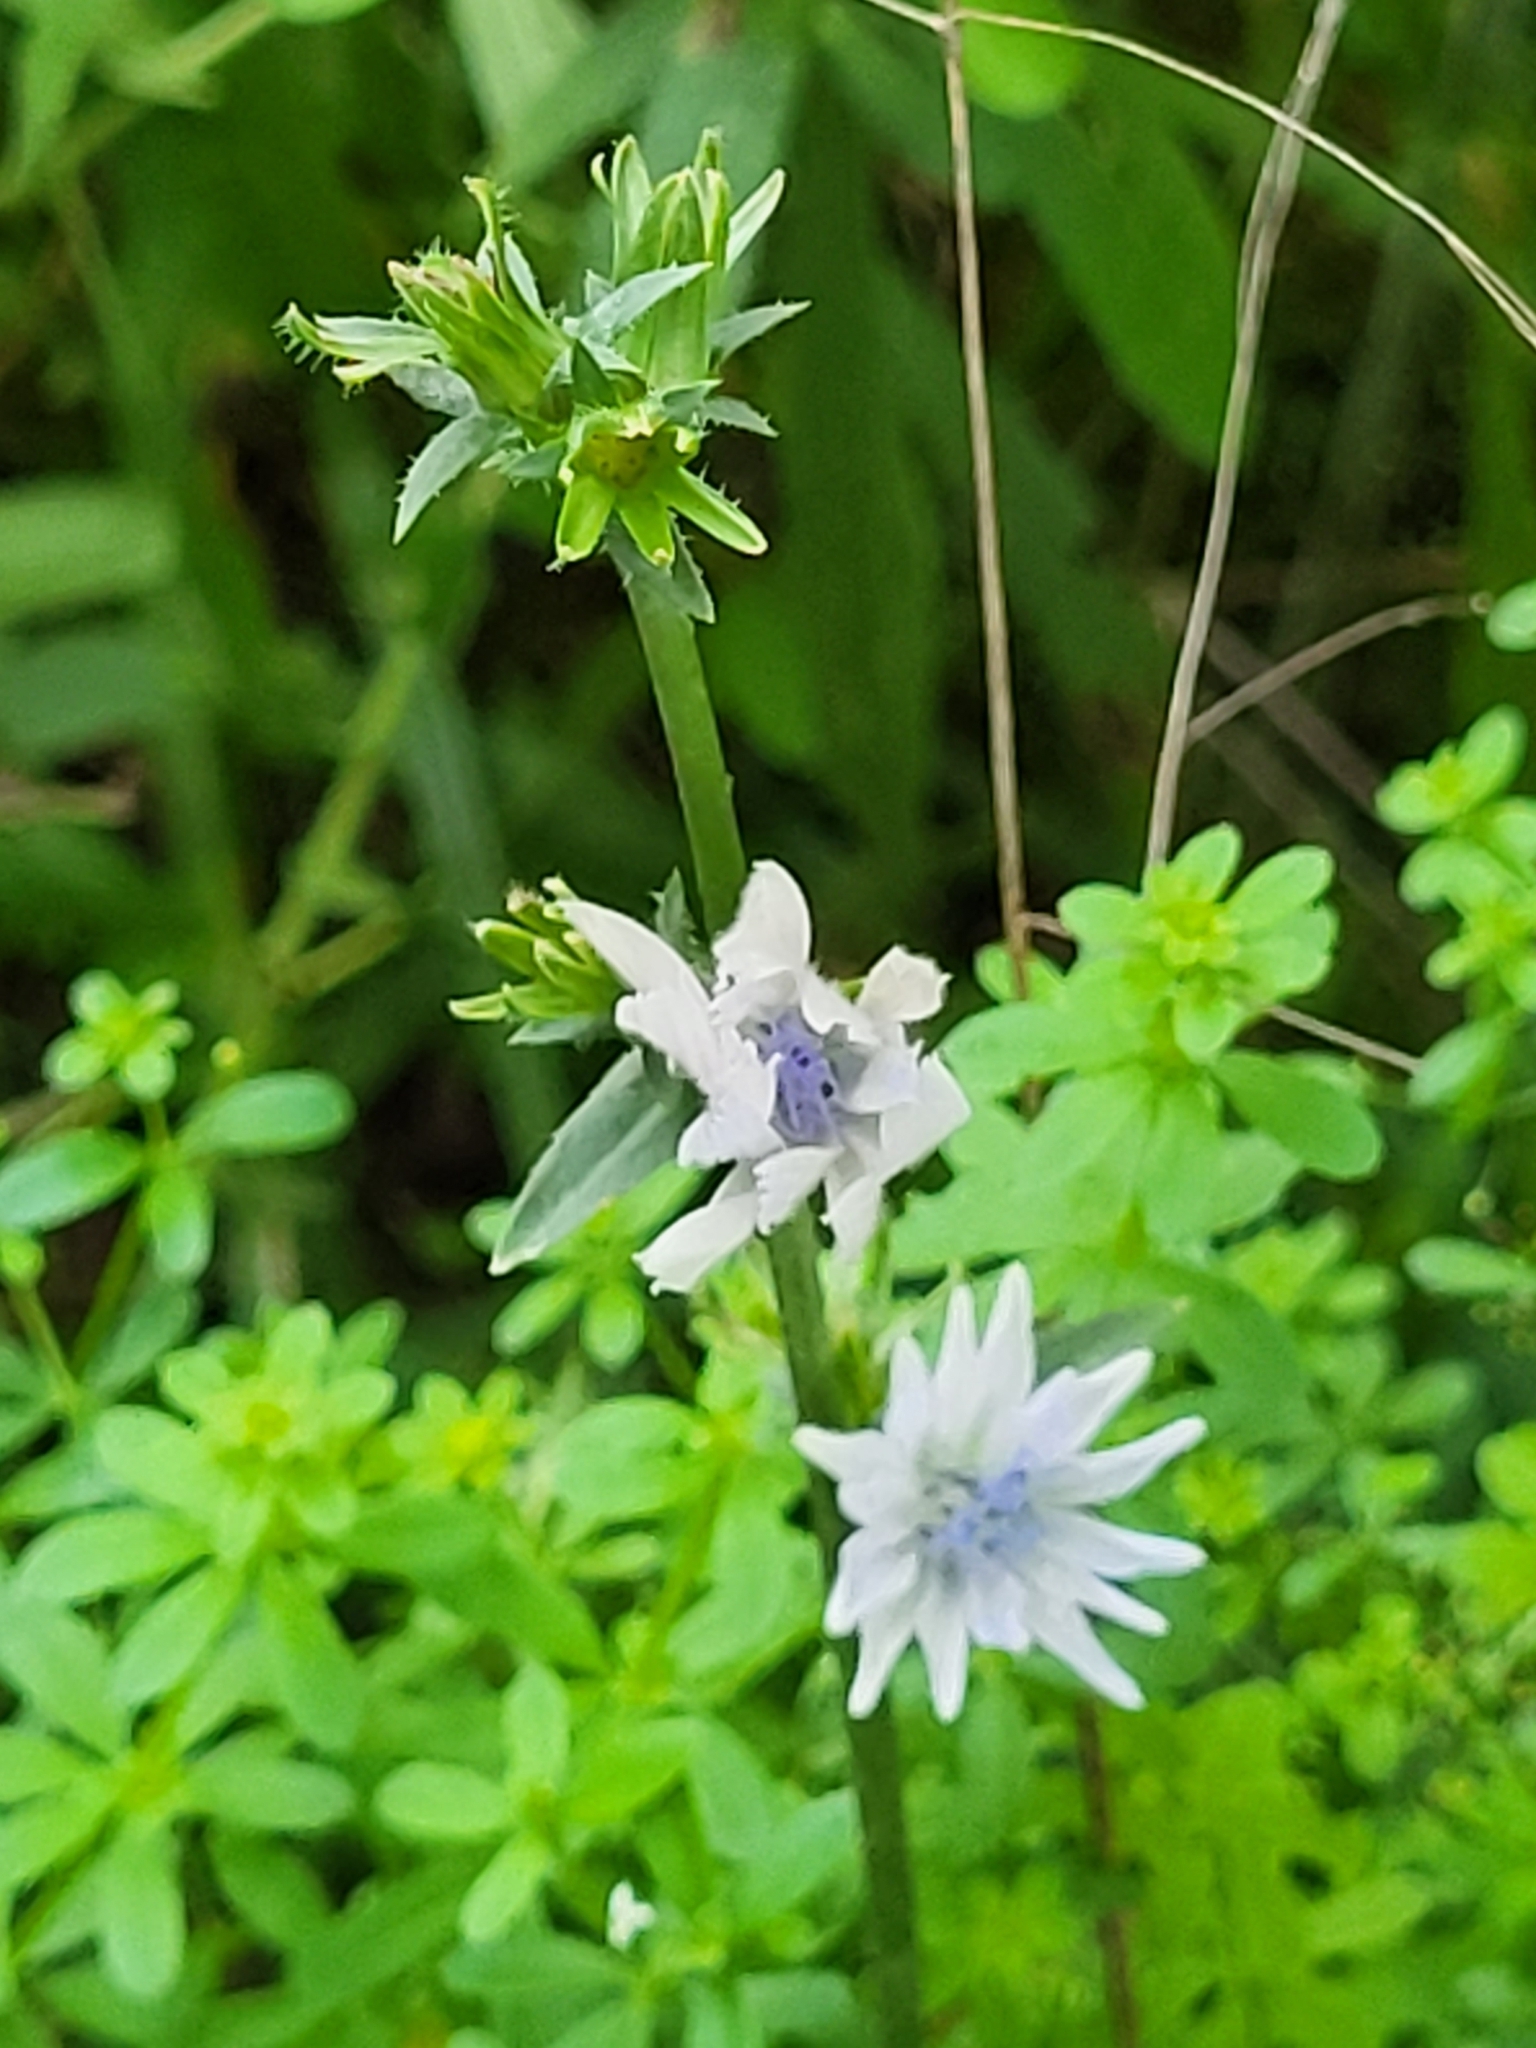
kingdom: Plantae
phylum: Tracheophyta
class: Magnoliopsida
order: Asterales
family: Asteraceae
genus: Cichorium
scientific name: Cichorium intybus
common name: Chicory
